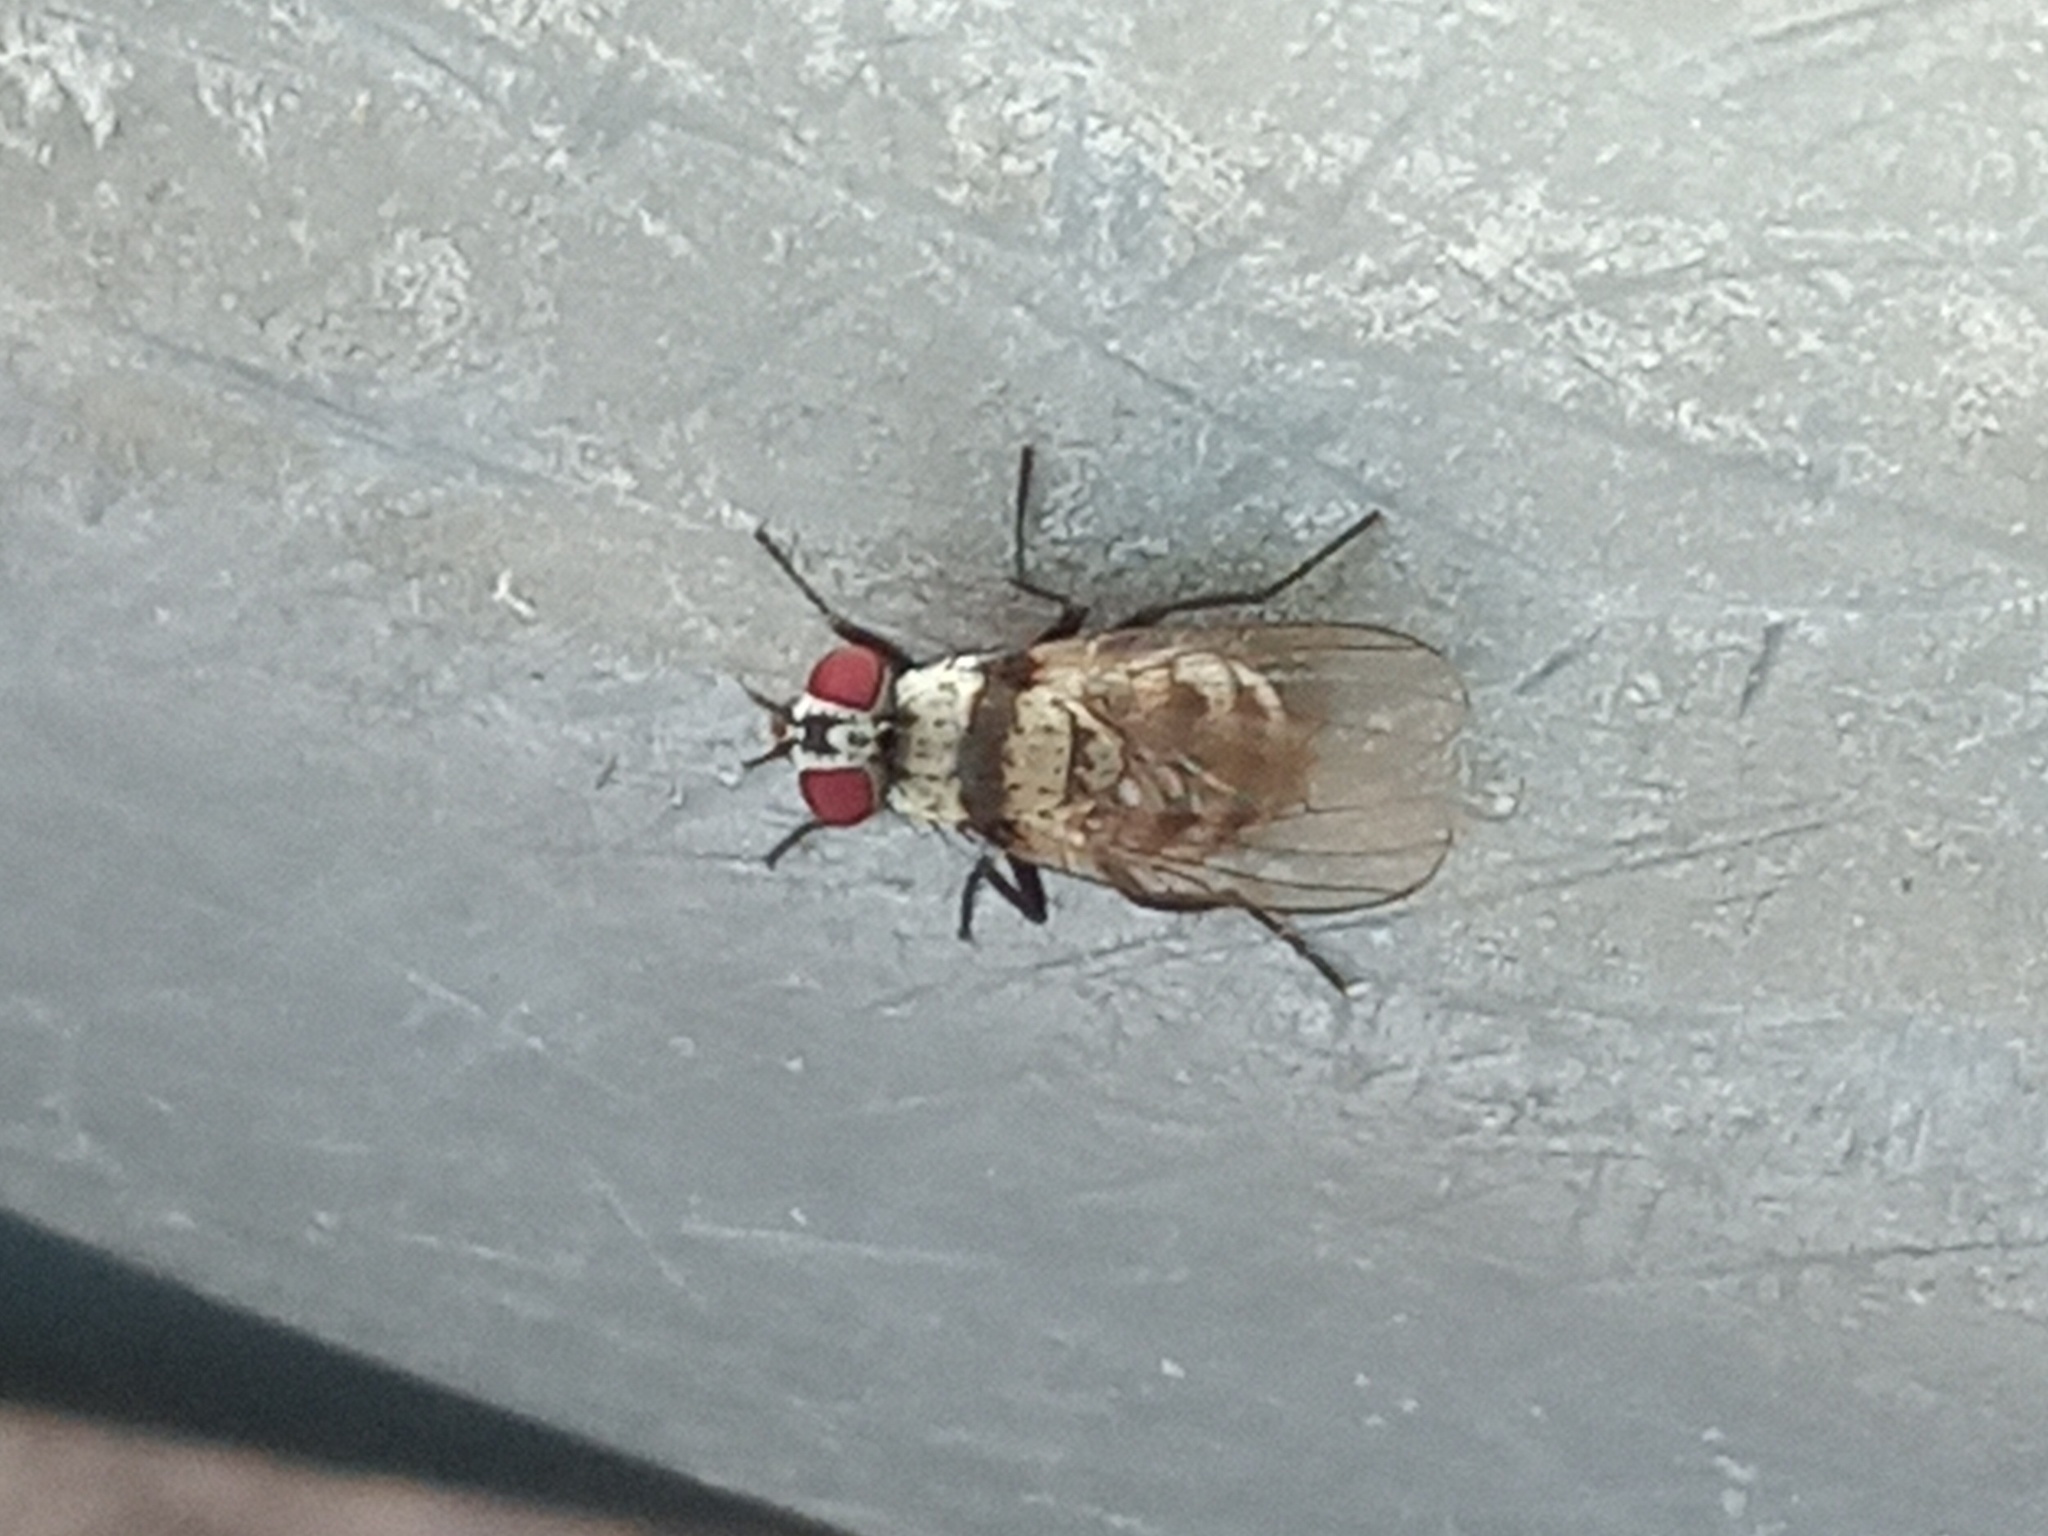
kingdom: Animalia
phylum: Arthropoda
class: Insecta
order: Diptera
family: Anthomyiidae
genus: Anthomyia
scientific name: Anthomyia illocata
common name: Fly
